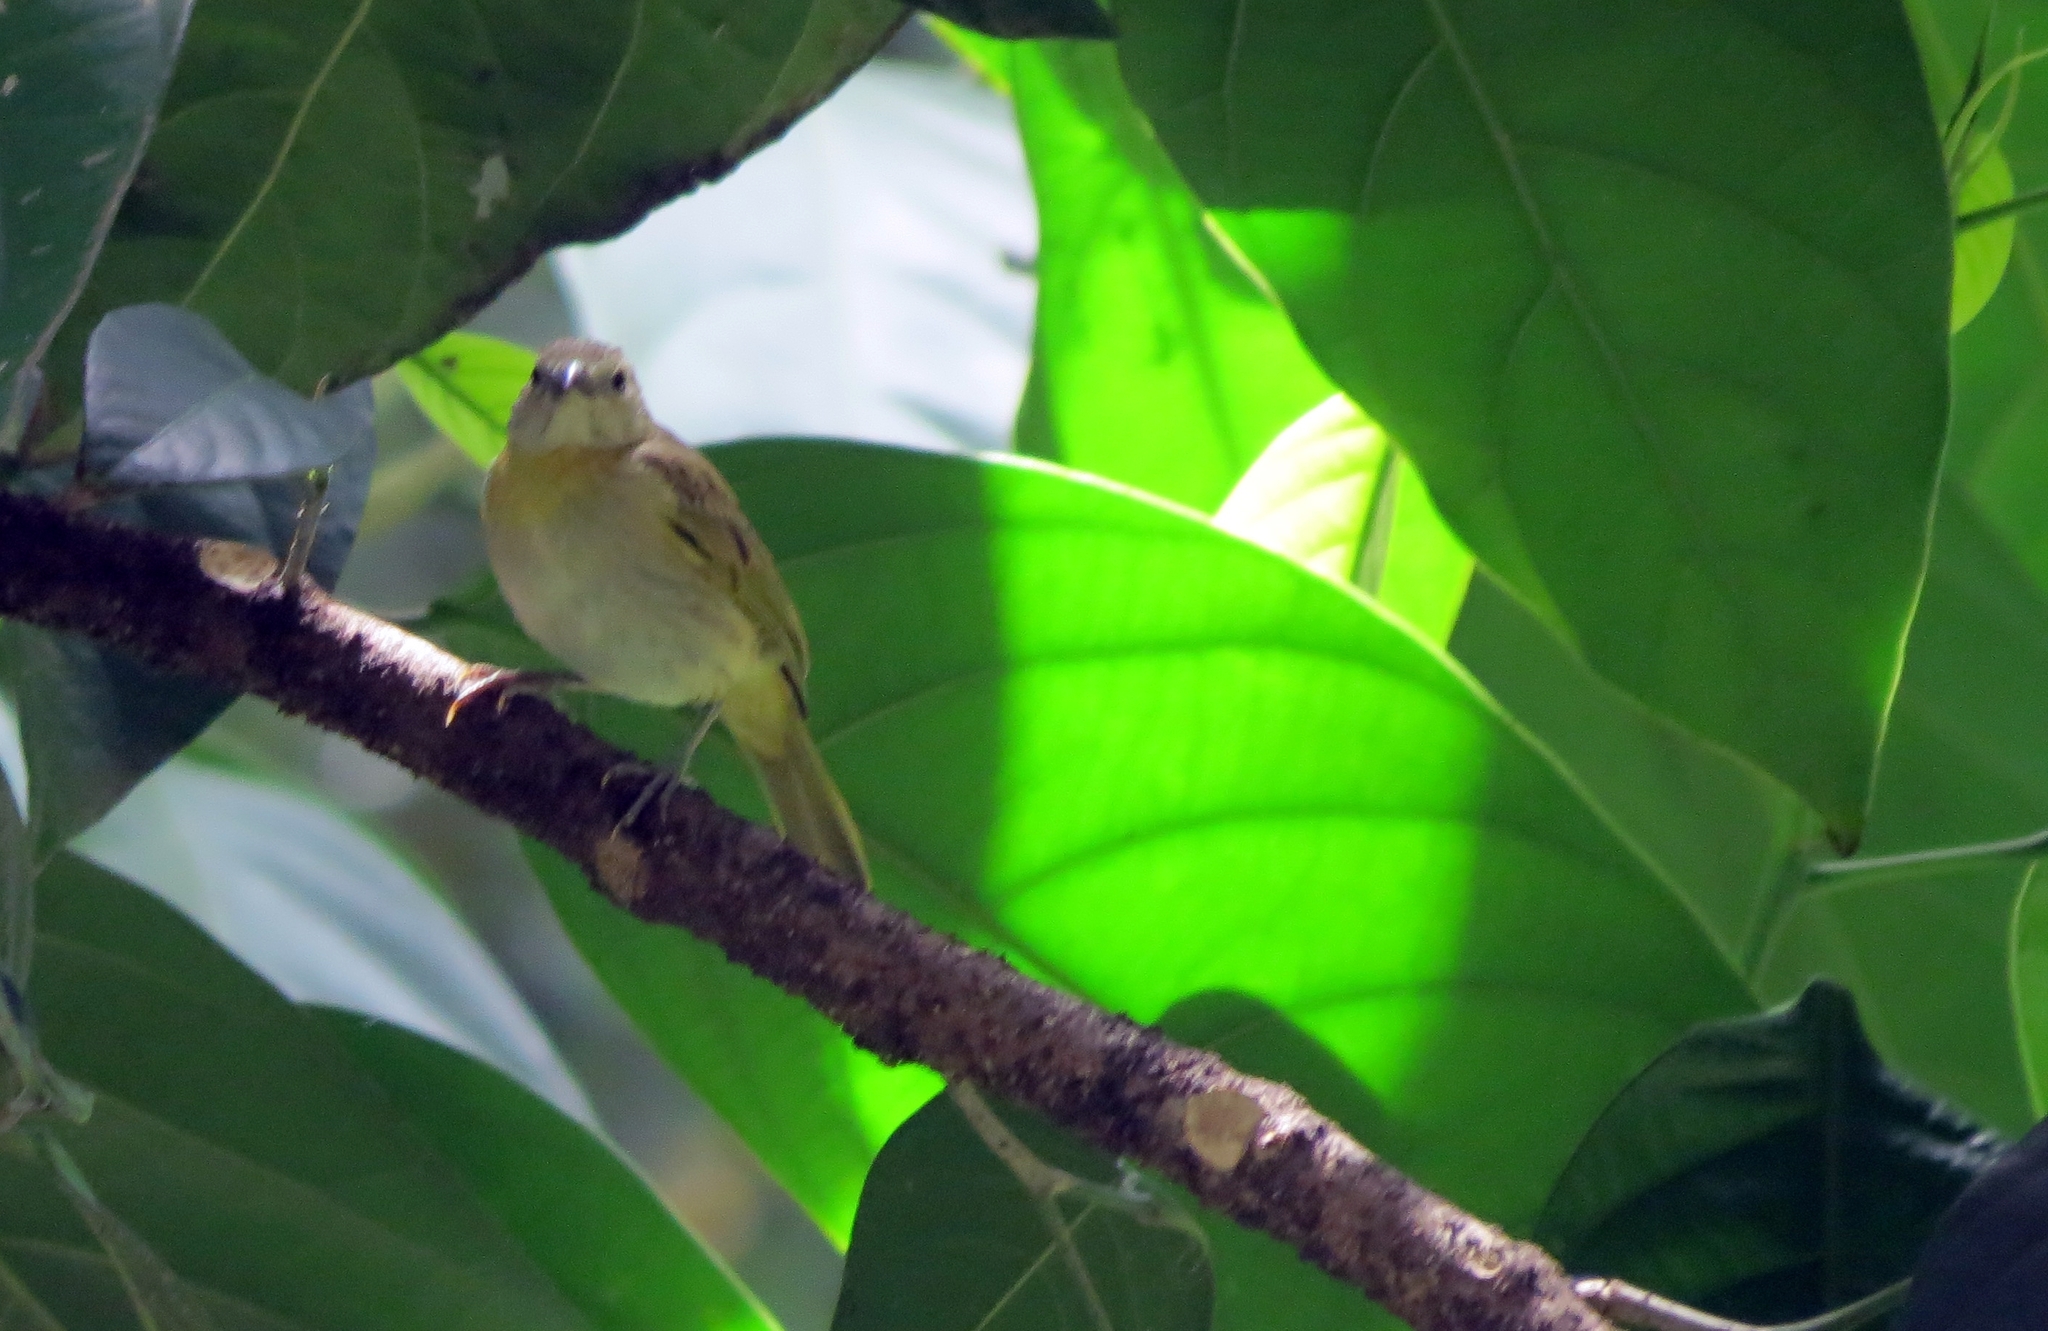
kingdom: Animalia
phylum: Chordata
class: Aves
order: Passeriformes
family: Thraupidae
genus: Sicalis
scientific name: Sicalis flaveola
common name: Saffron finch
